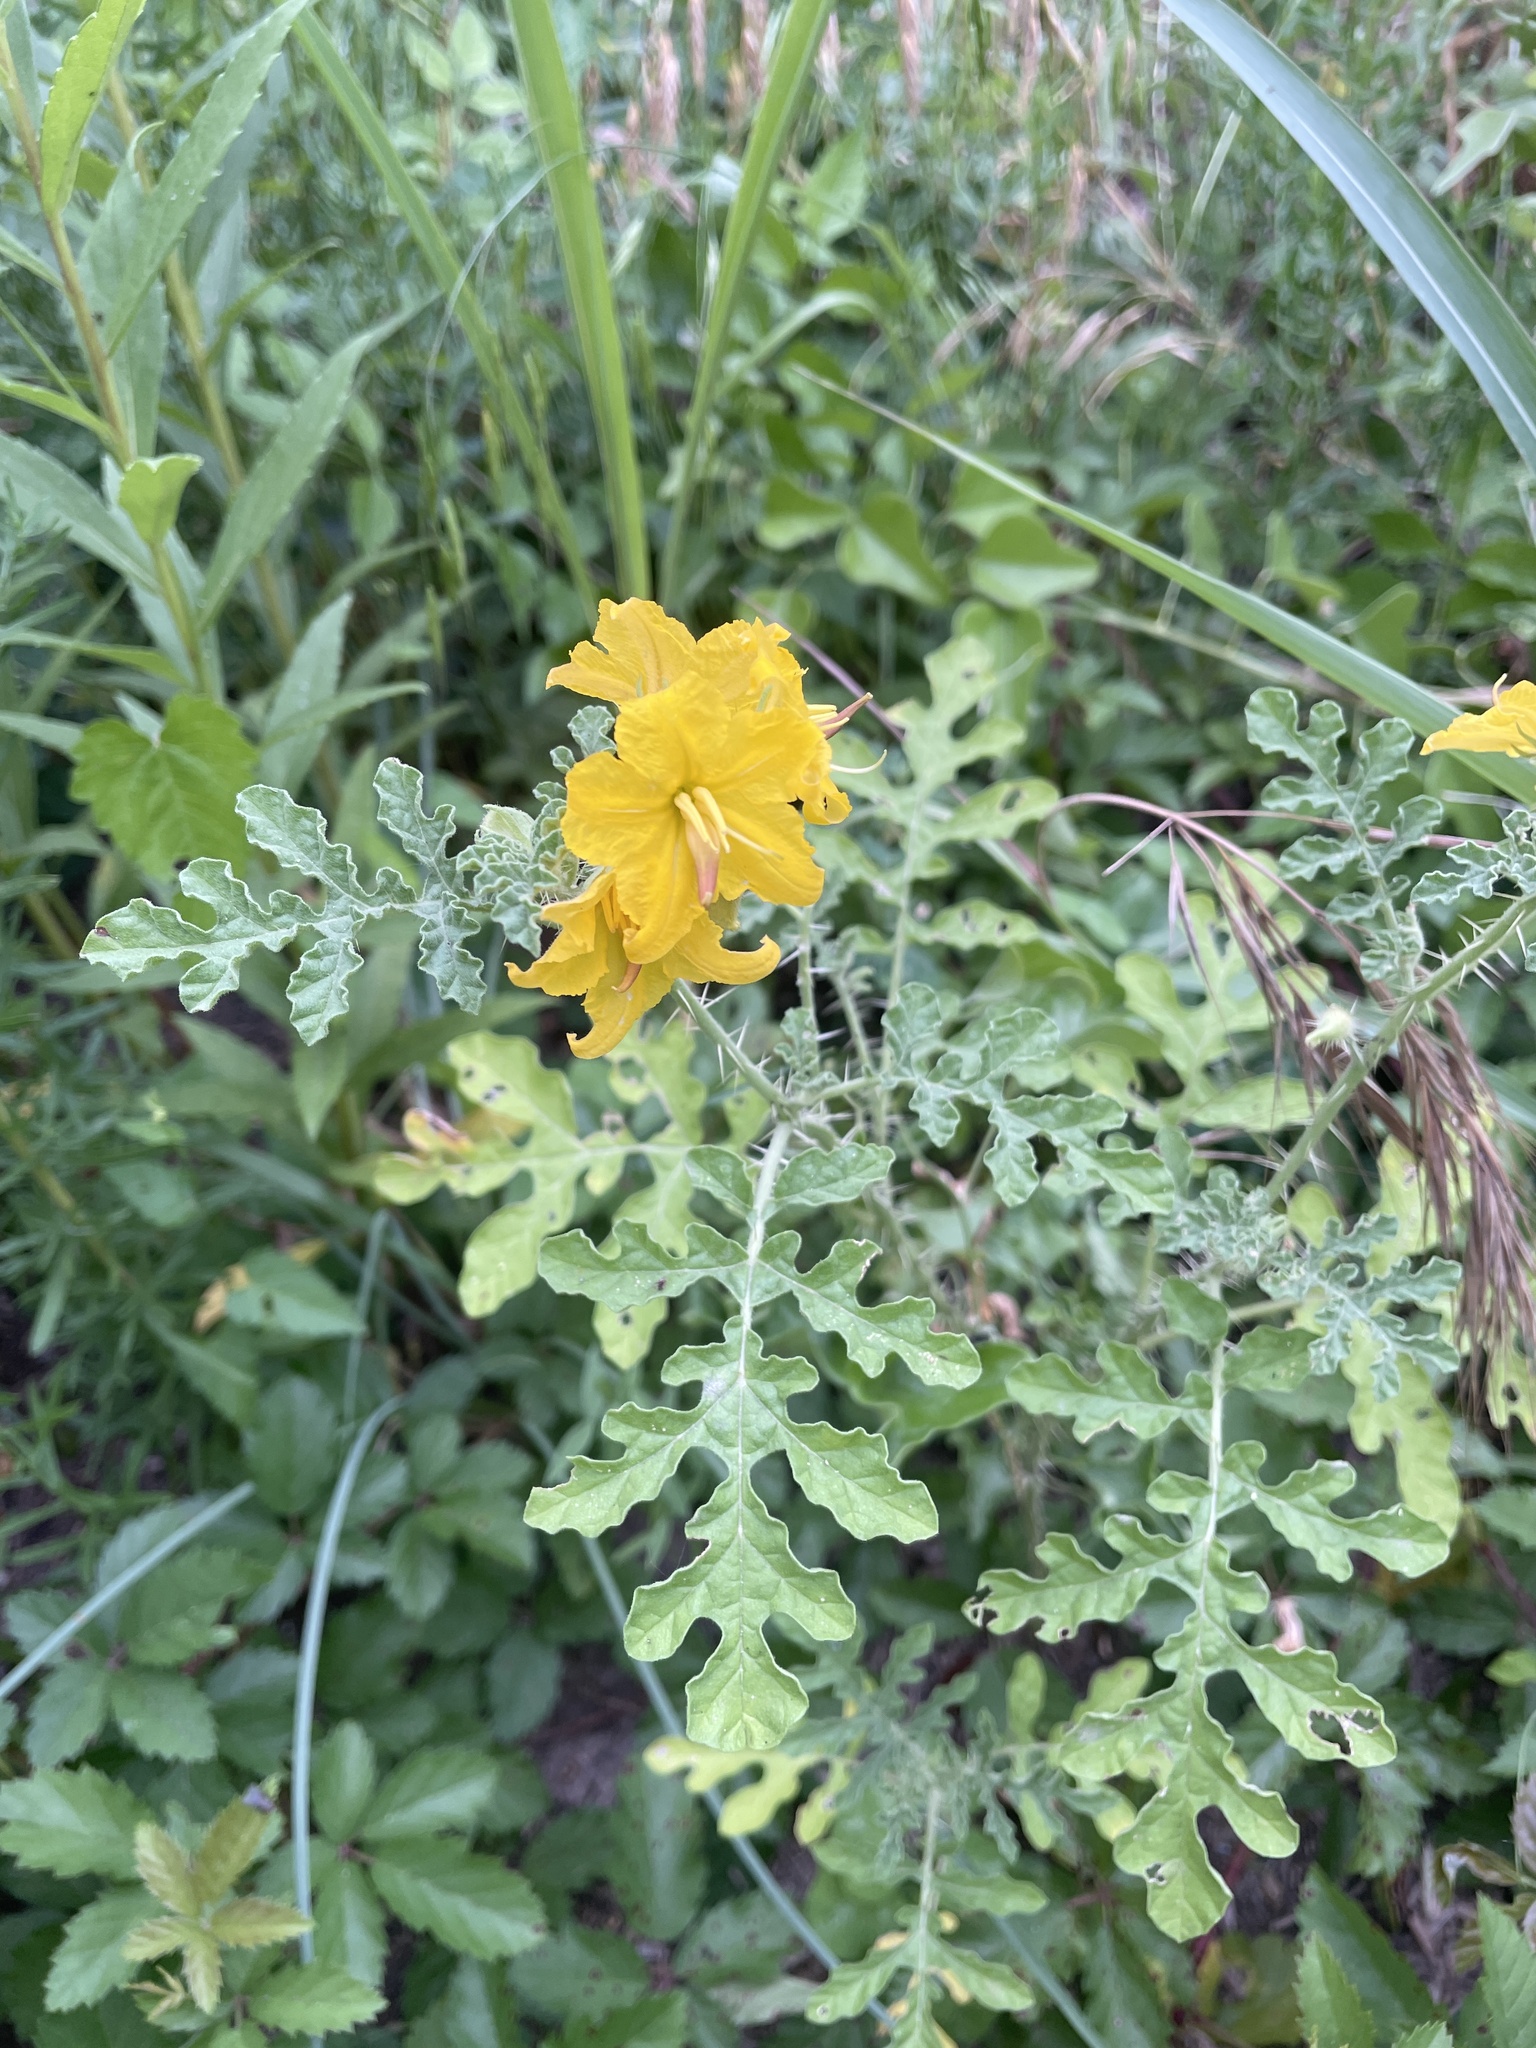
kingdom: Plantae
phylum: Tracheophyta
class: Magnoliopsida
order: Solanales
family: Solanaceae
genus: Solanum
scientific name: Solanum angustifolium
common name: Buffalobur nightshade
